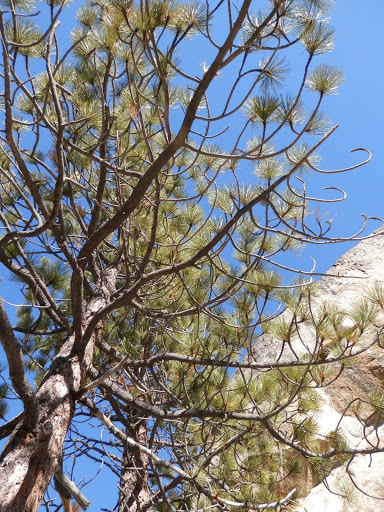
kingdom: Plantae
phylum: Tracheophyta
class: Pinopsida
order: Pinales
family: Pinaceae
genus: Pinus
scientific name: Pinus jeffreyi
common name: Jeffrey pine
